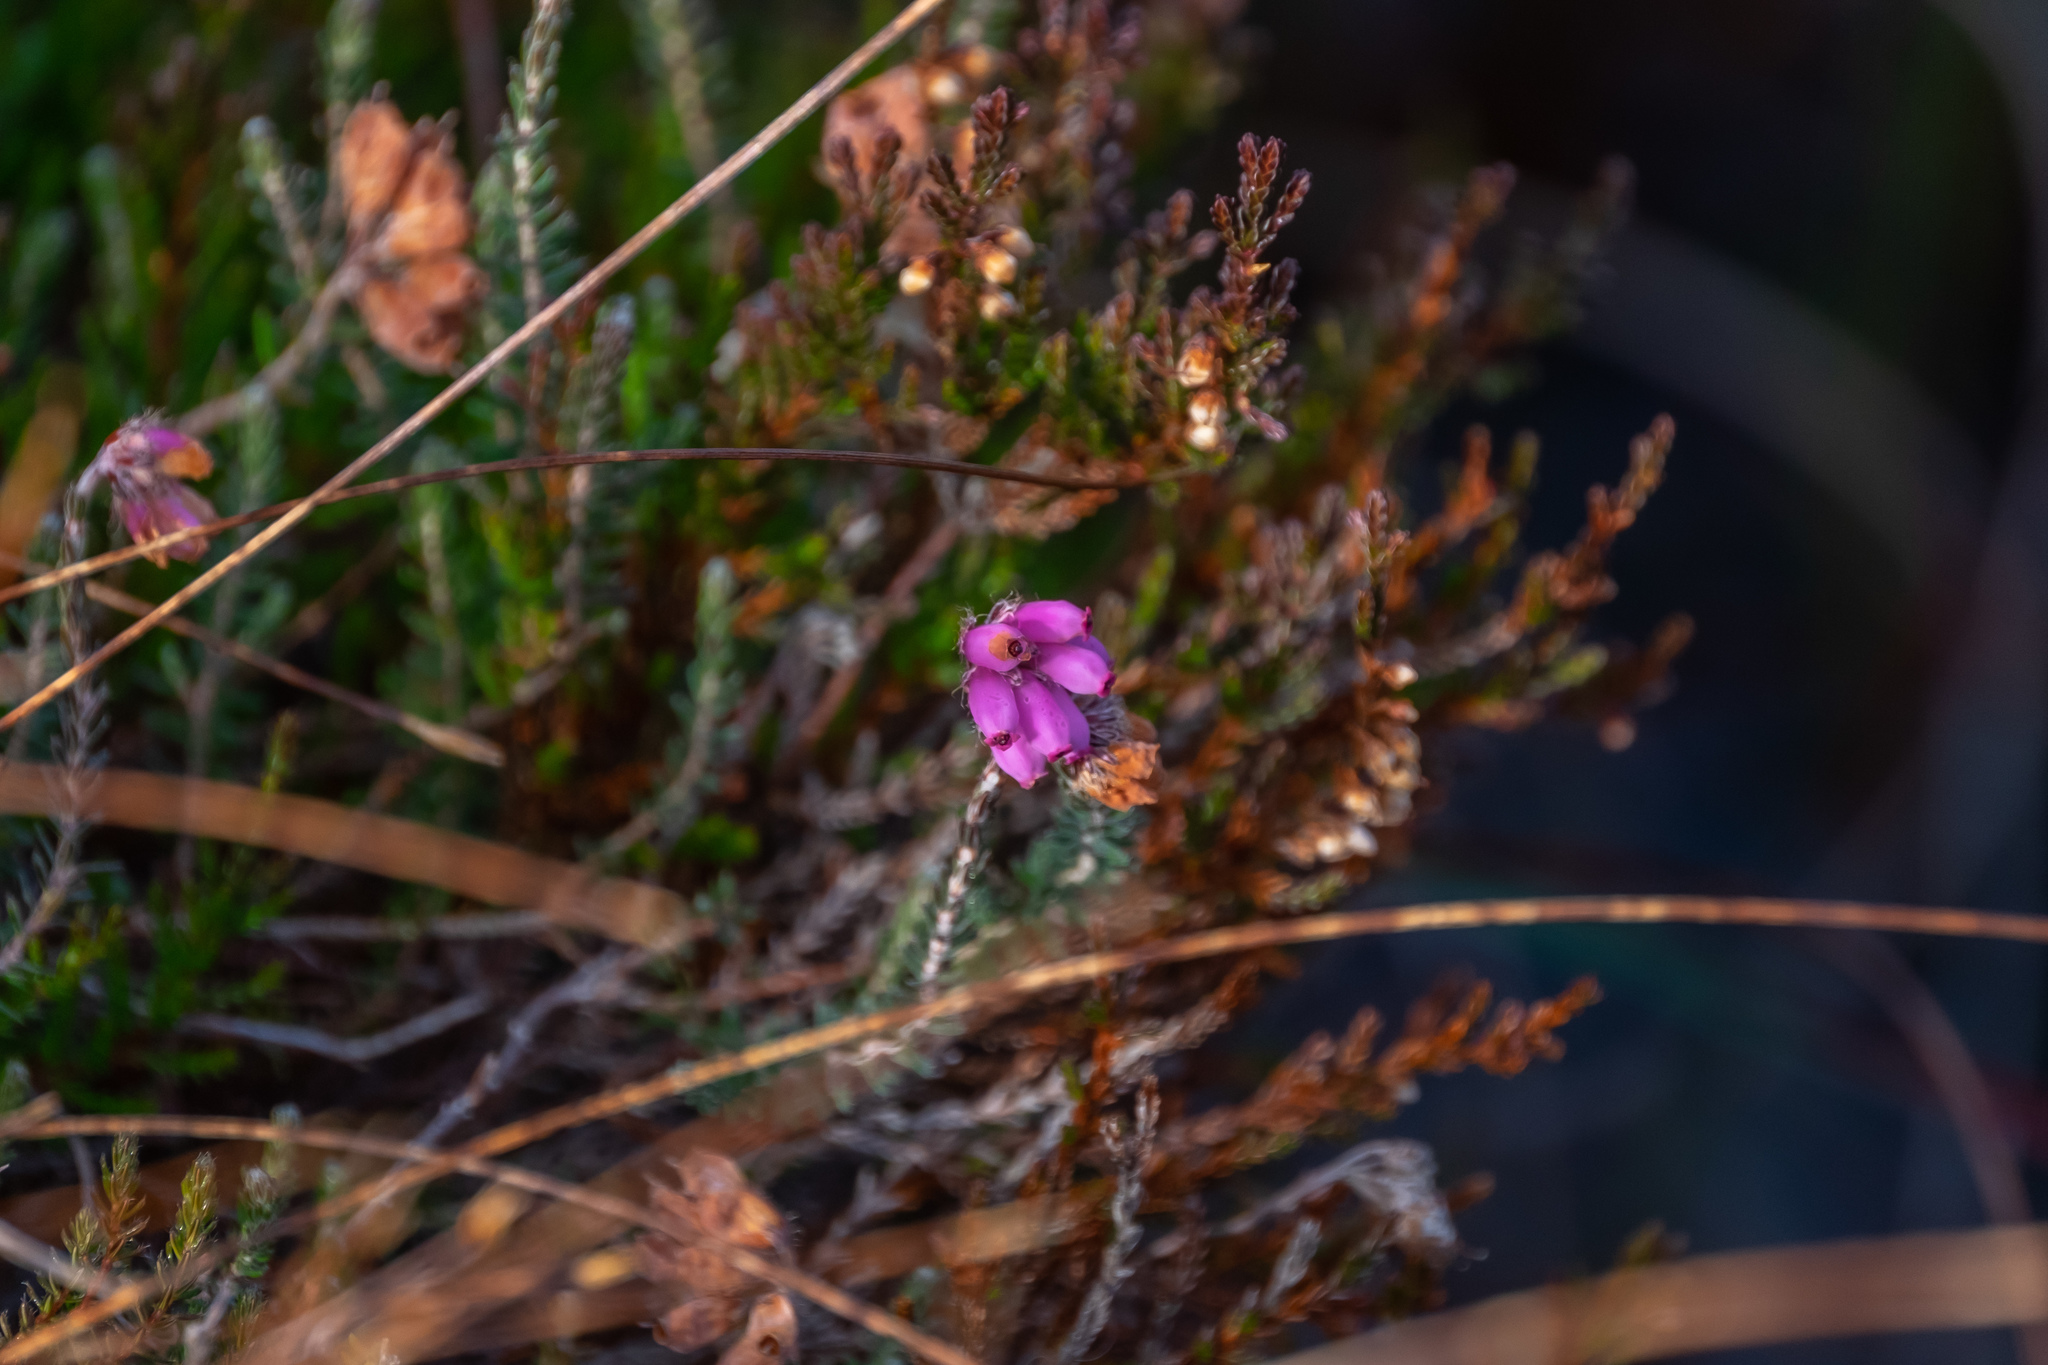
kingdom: Plantae
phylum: Tracheophyta
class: Magnoliopsida
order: Ericales
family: Ericaceae
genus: Erica
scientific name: Erica tetralix
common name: Cross-leaved heath
